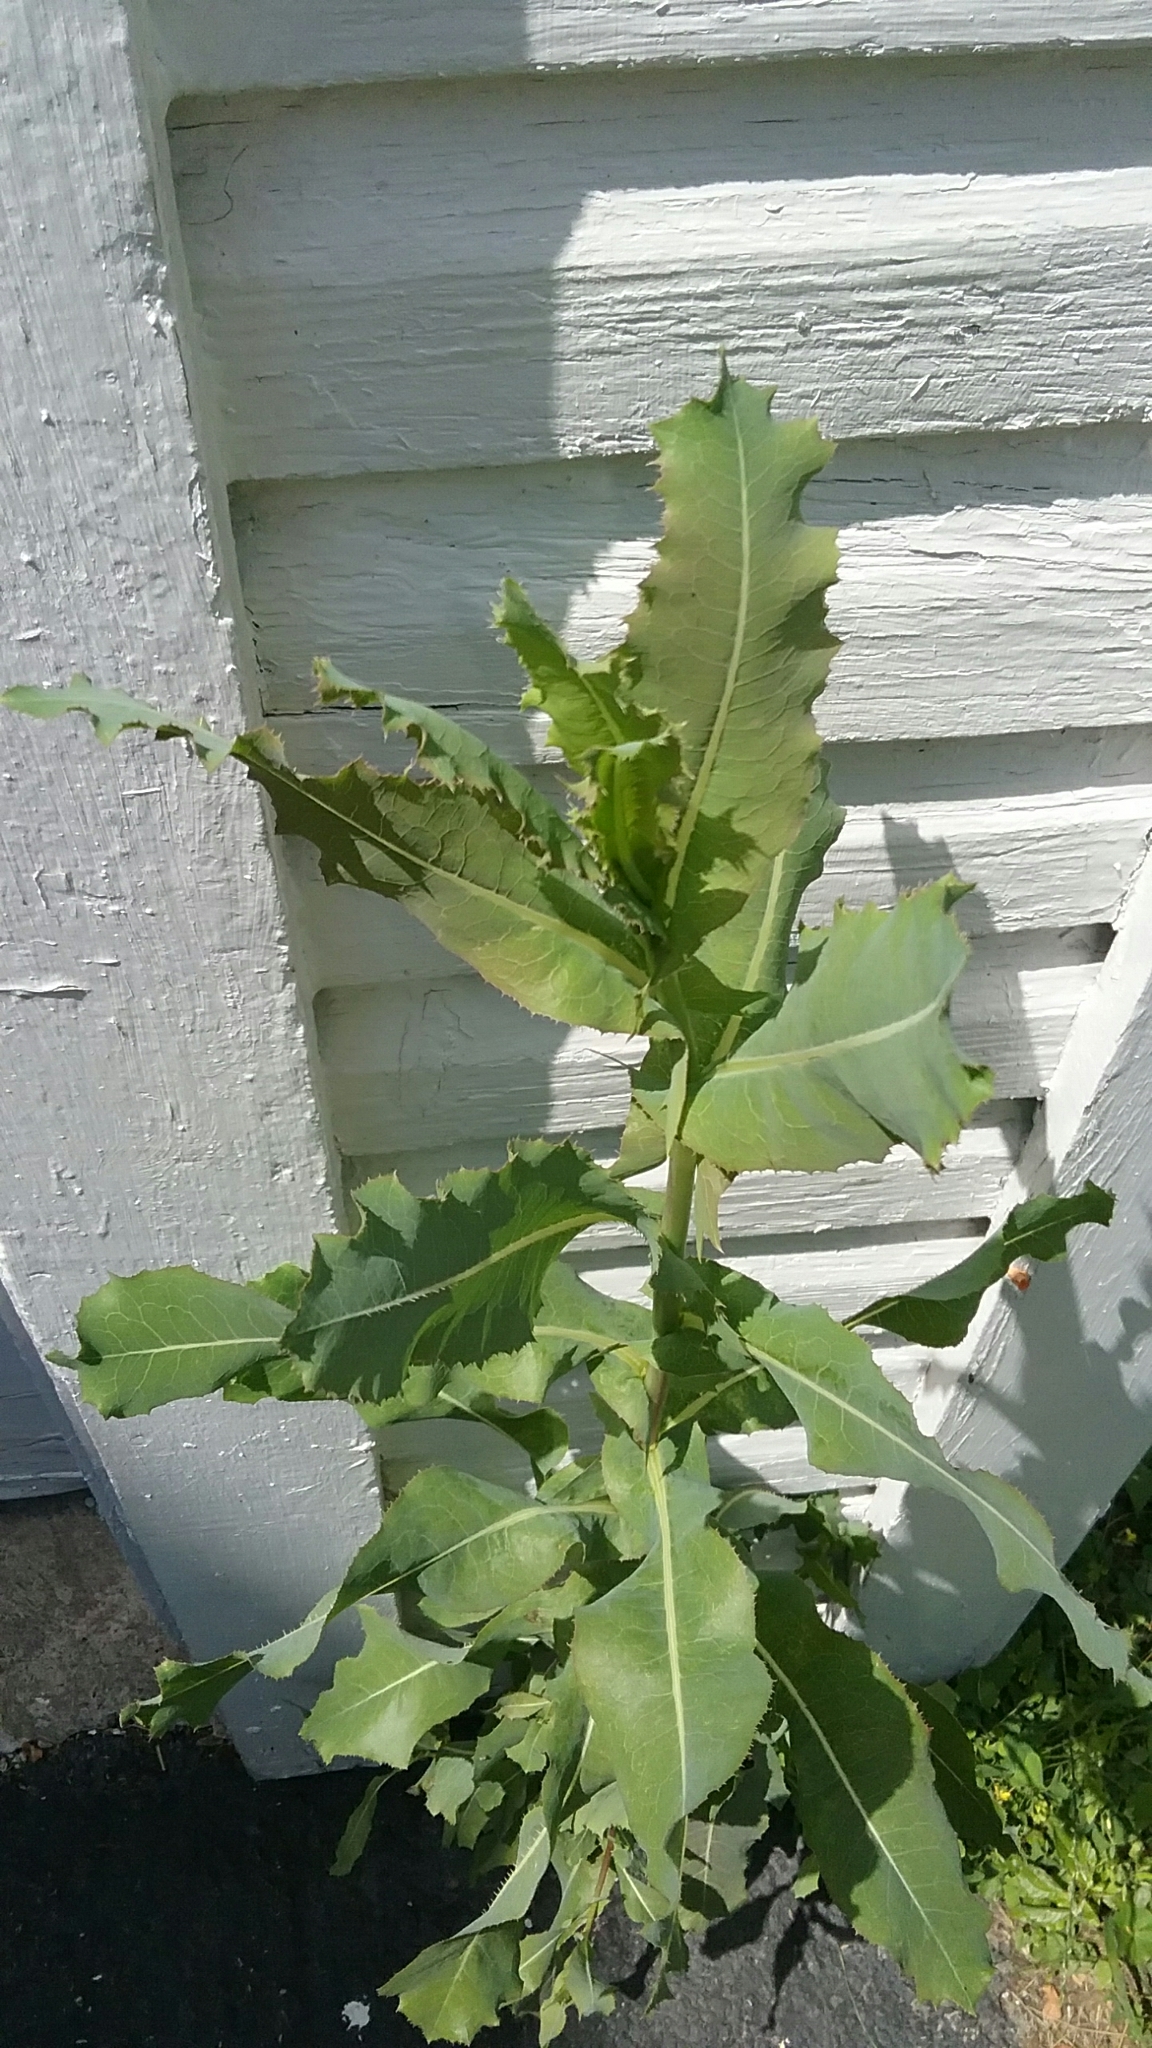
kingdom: Plantae
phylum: Tracheophyta
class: Magnoliopsida
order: Asterales
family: Asteraceae
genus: Lactuca
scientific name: Lactuca serriola
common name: Prickly lettuce
